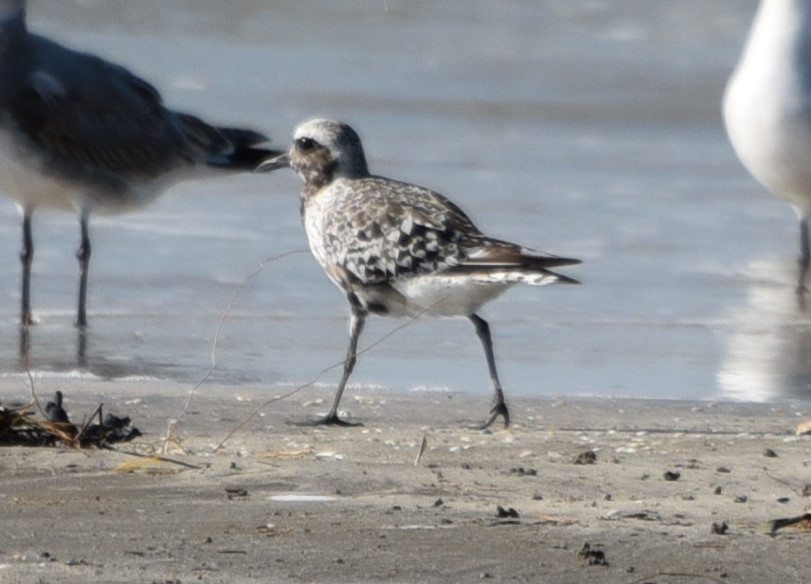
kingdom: Animalia
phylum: Chordata
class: Aves
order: Charadriiformes
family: Charadriidae
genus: Pluvialis
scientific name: Pluvialis squatarola
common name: Grey plover
